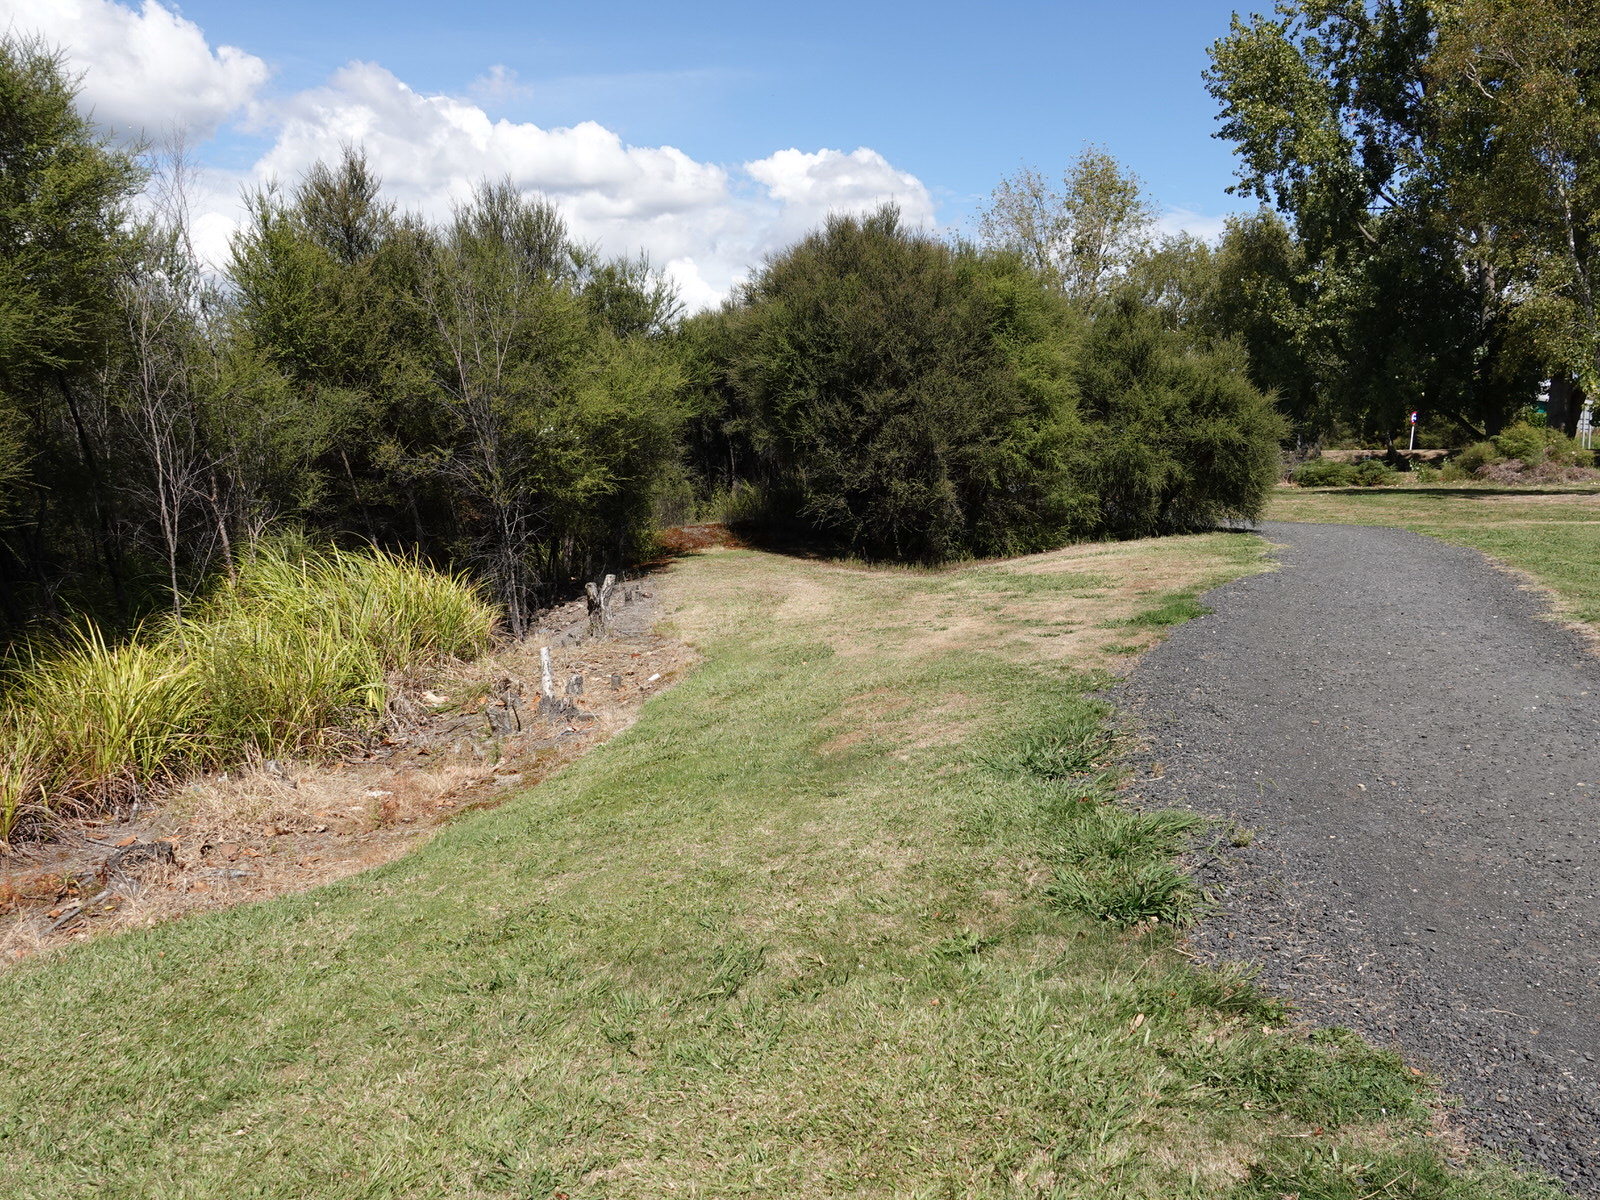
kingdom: Animalia
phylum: Arthropoda
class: Insecta
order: Orthoptera
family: Tettigoniidae
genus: Caedicia
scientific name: Caedicia simplex
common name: Common garden katydid
